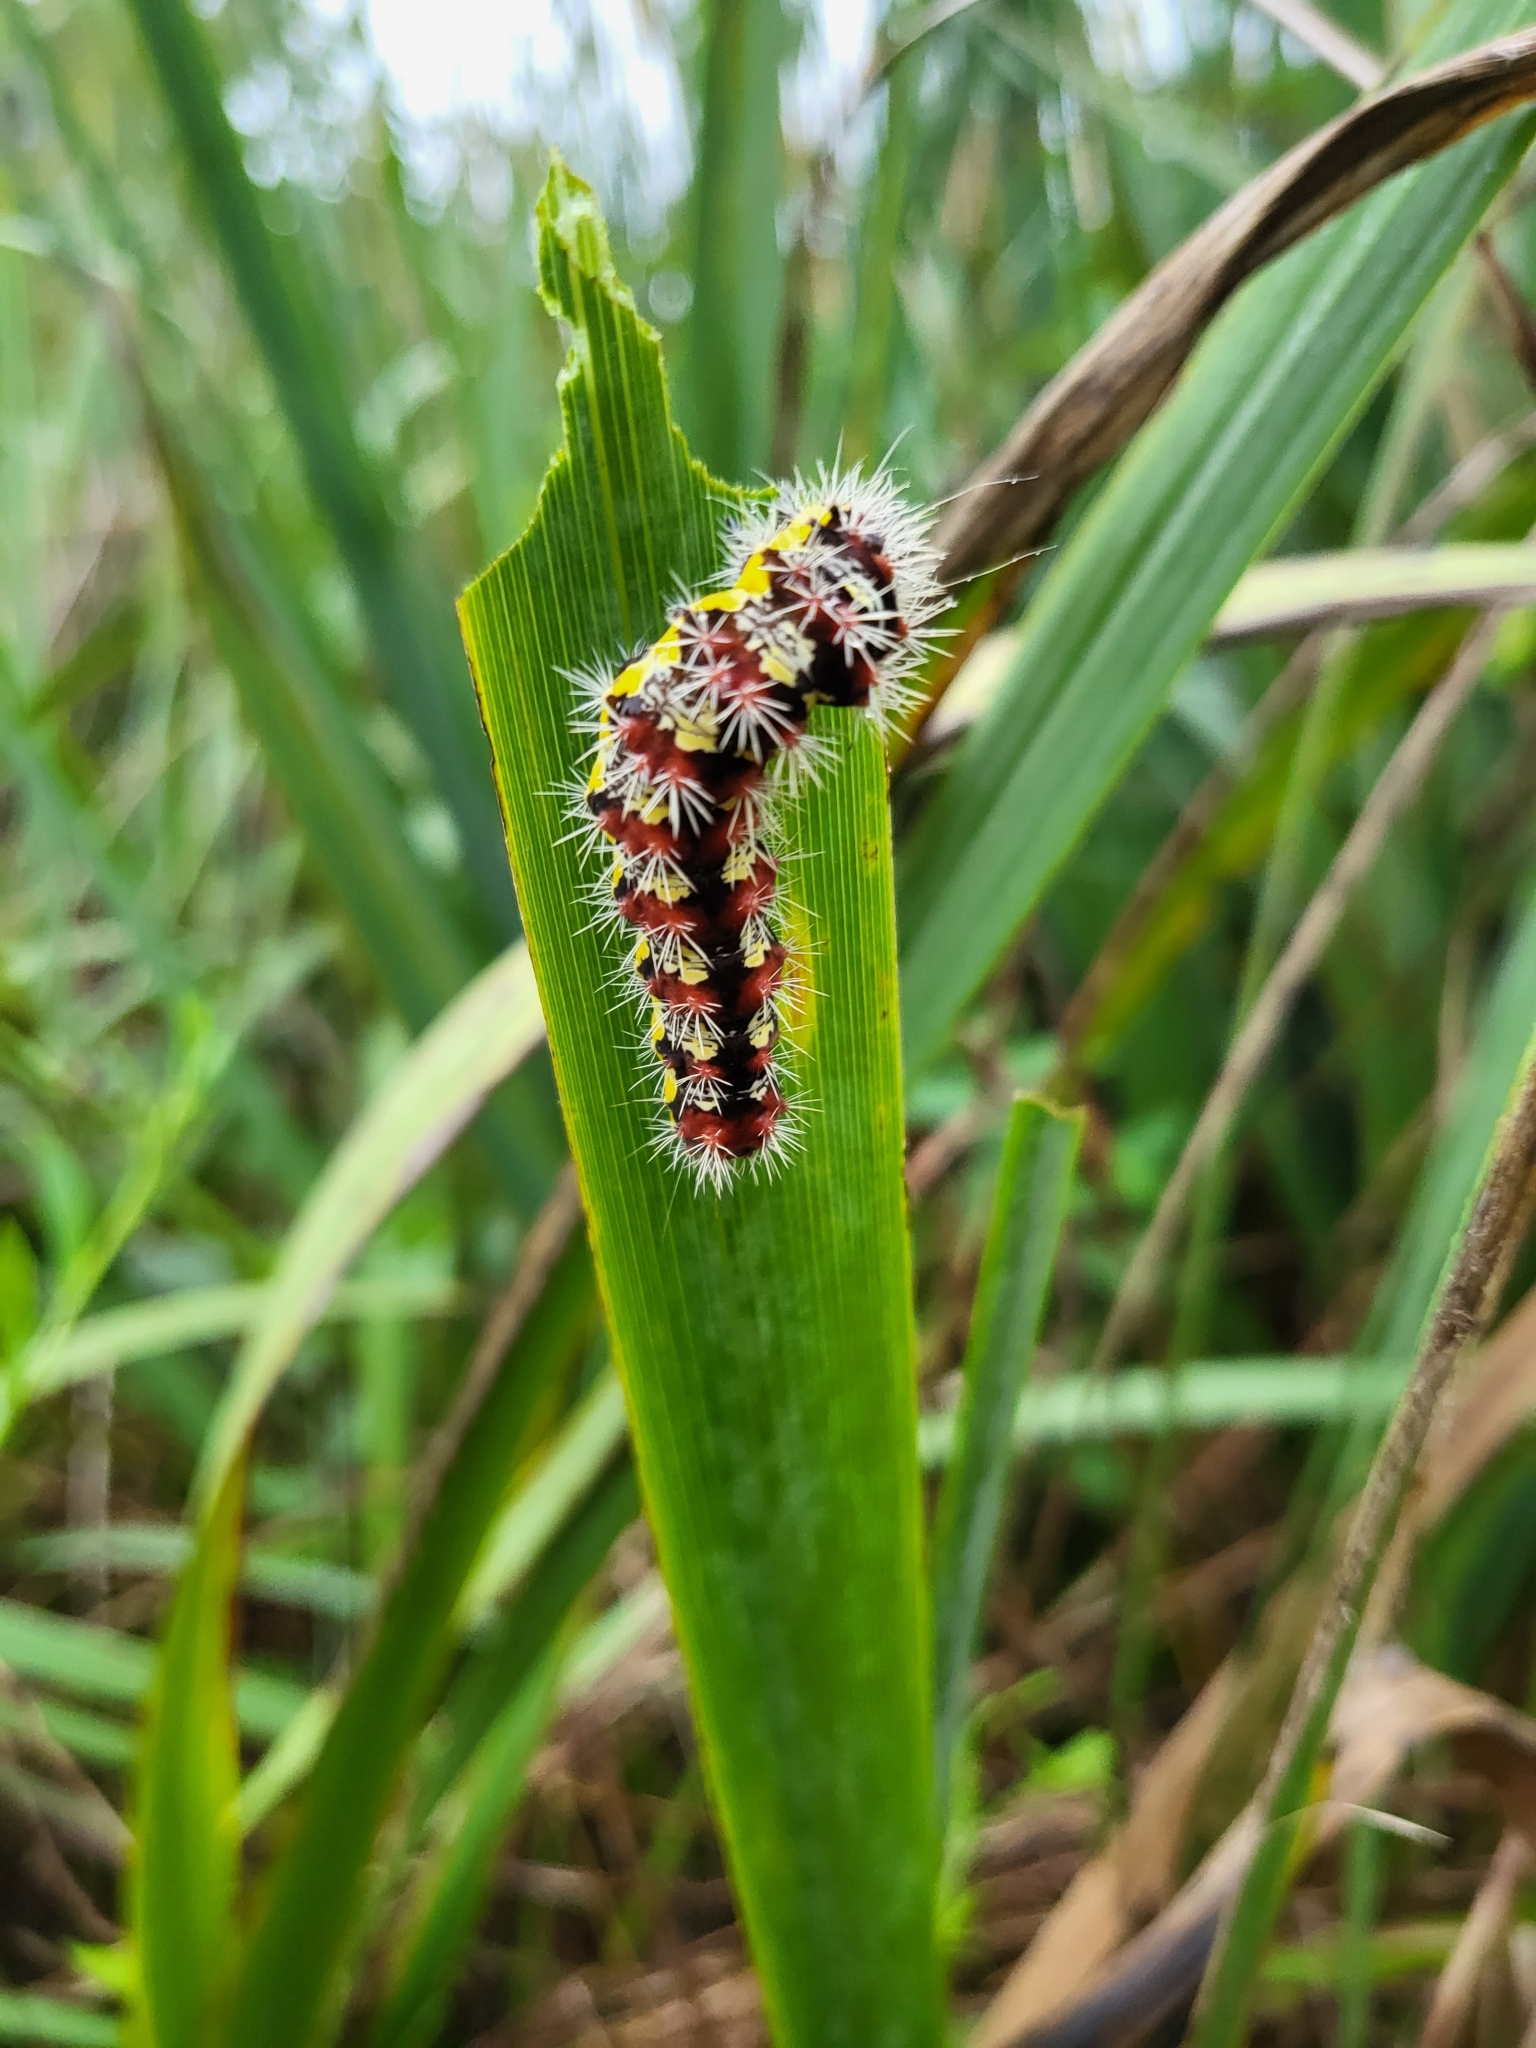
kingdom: Animalia
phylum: Arthropoda
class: Insecta
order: Lepidoptera
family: Noctuidae
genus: Acronicta
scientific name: Acronicta oblinita
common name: Smeared dagger
